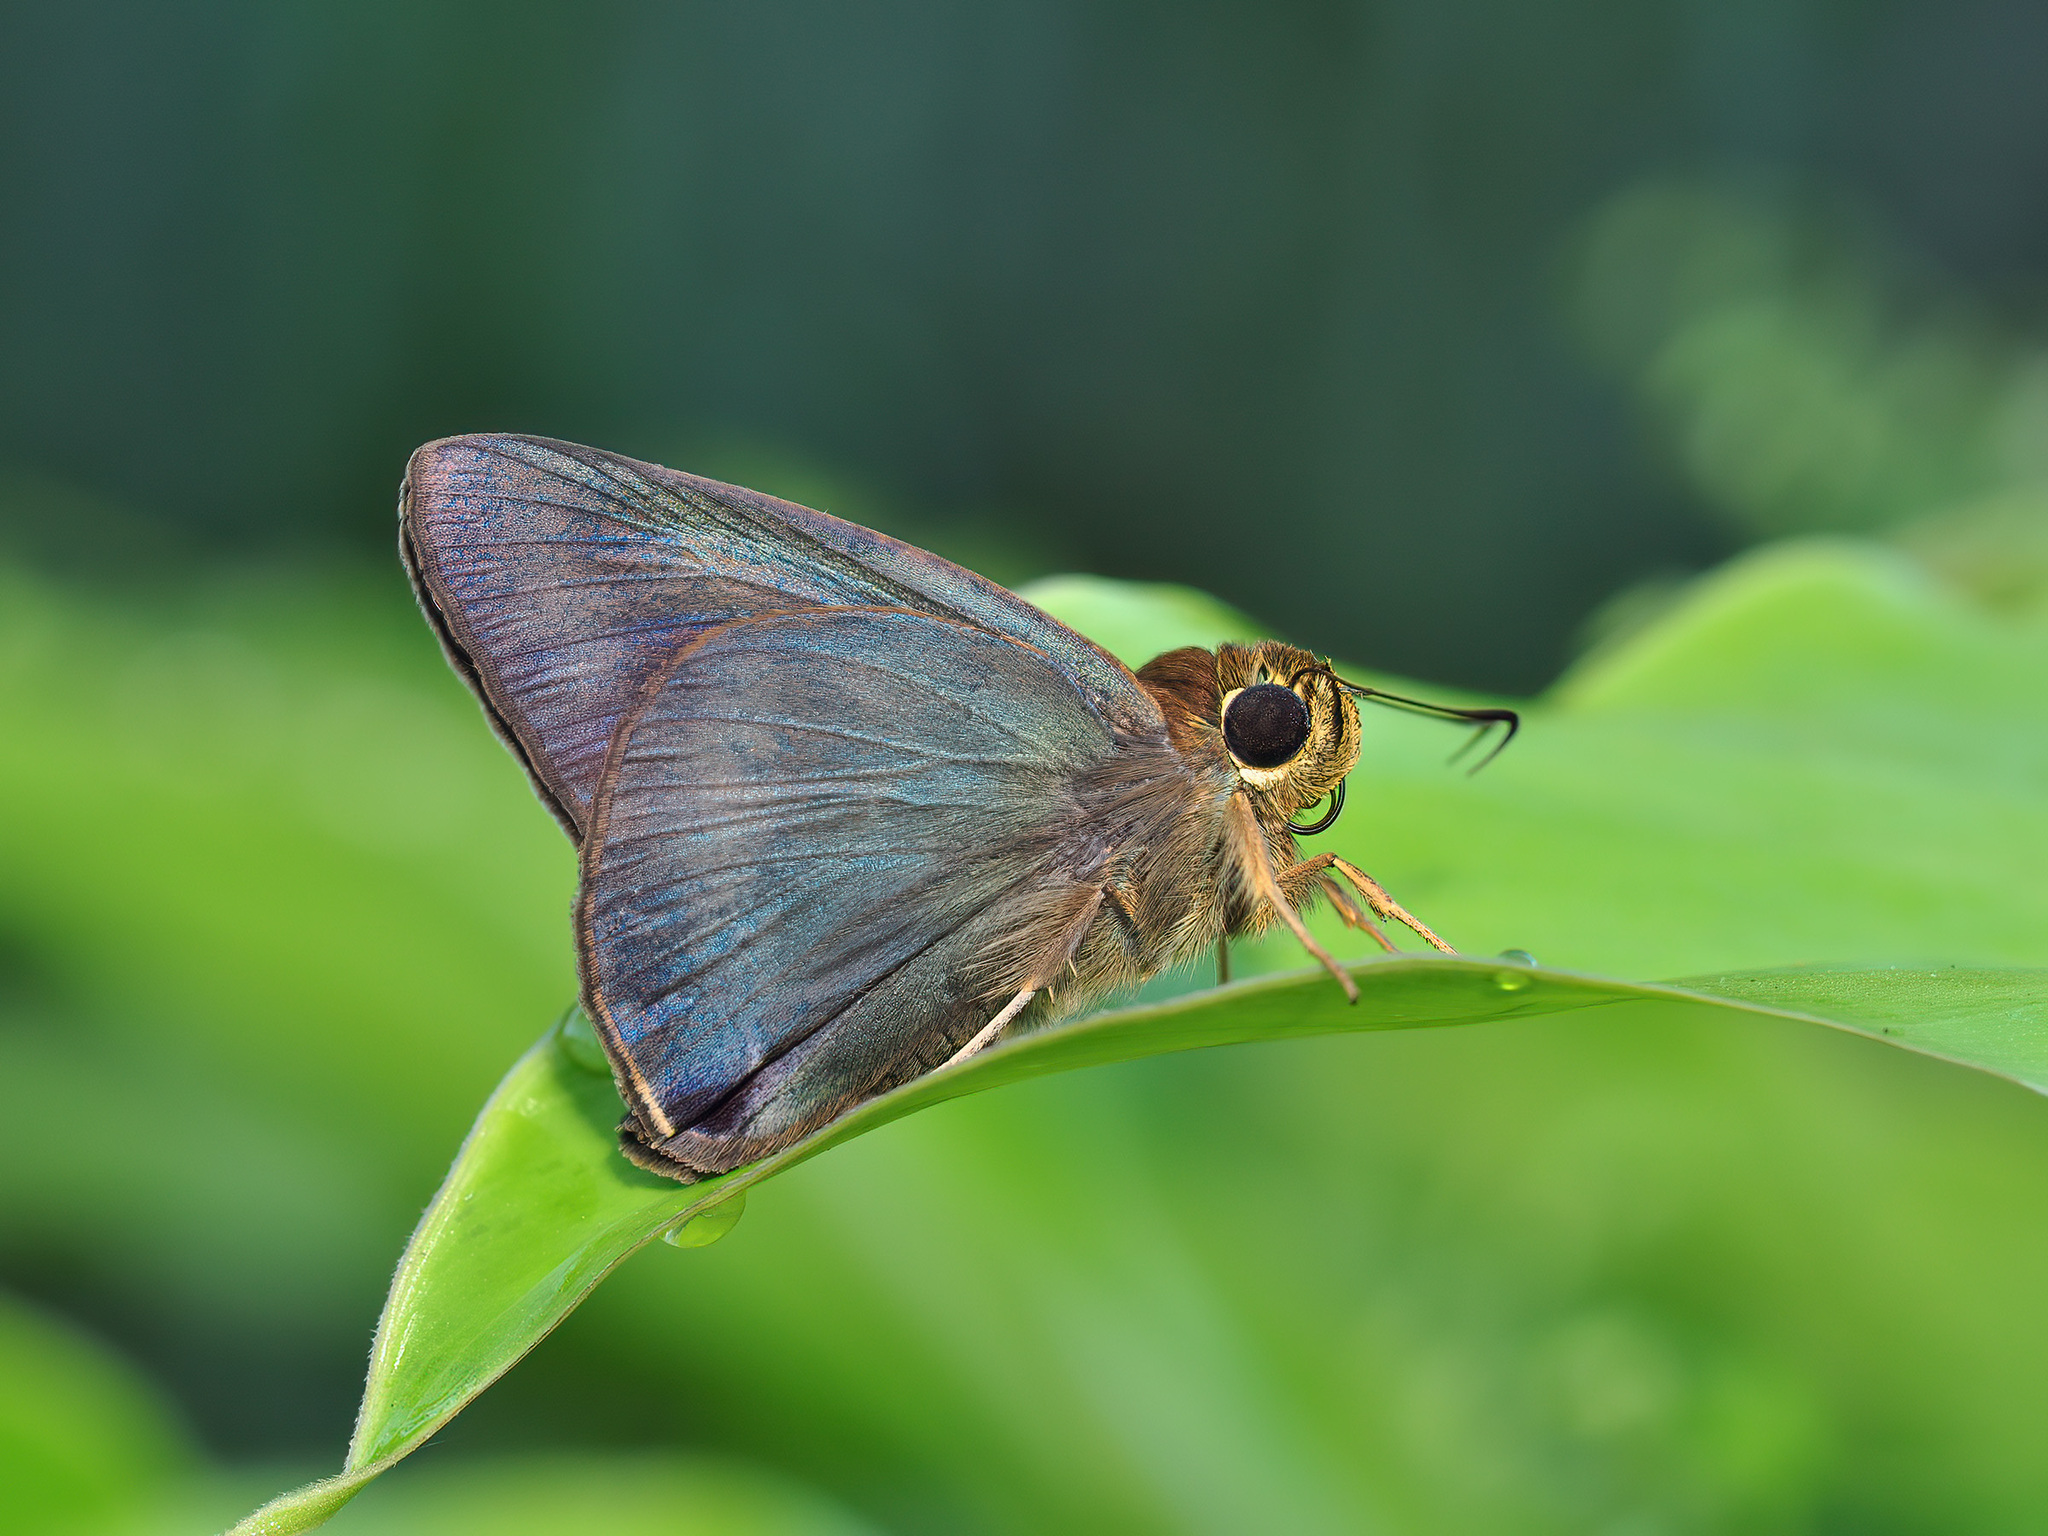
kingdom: Animalia
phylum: Arthropoda
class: Insecta
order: Lepidoptera
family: Hesperiidae
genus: Hasora
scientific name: Hasora salanga
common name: Black-tailed awl
